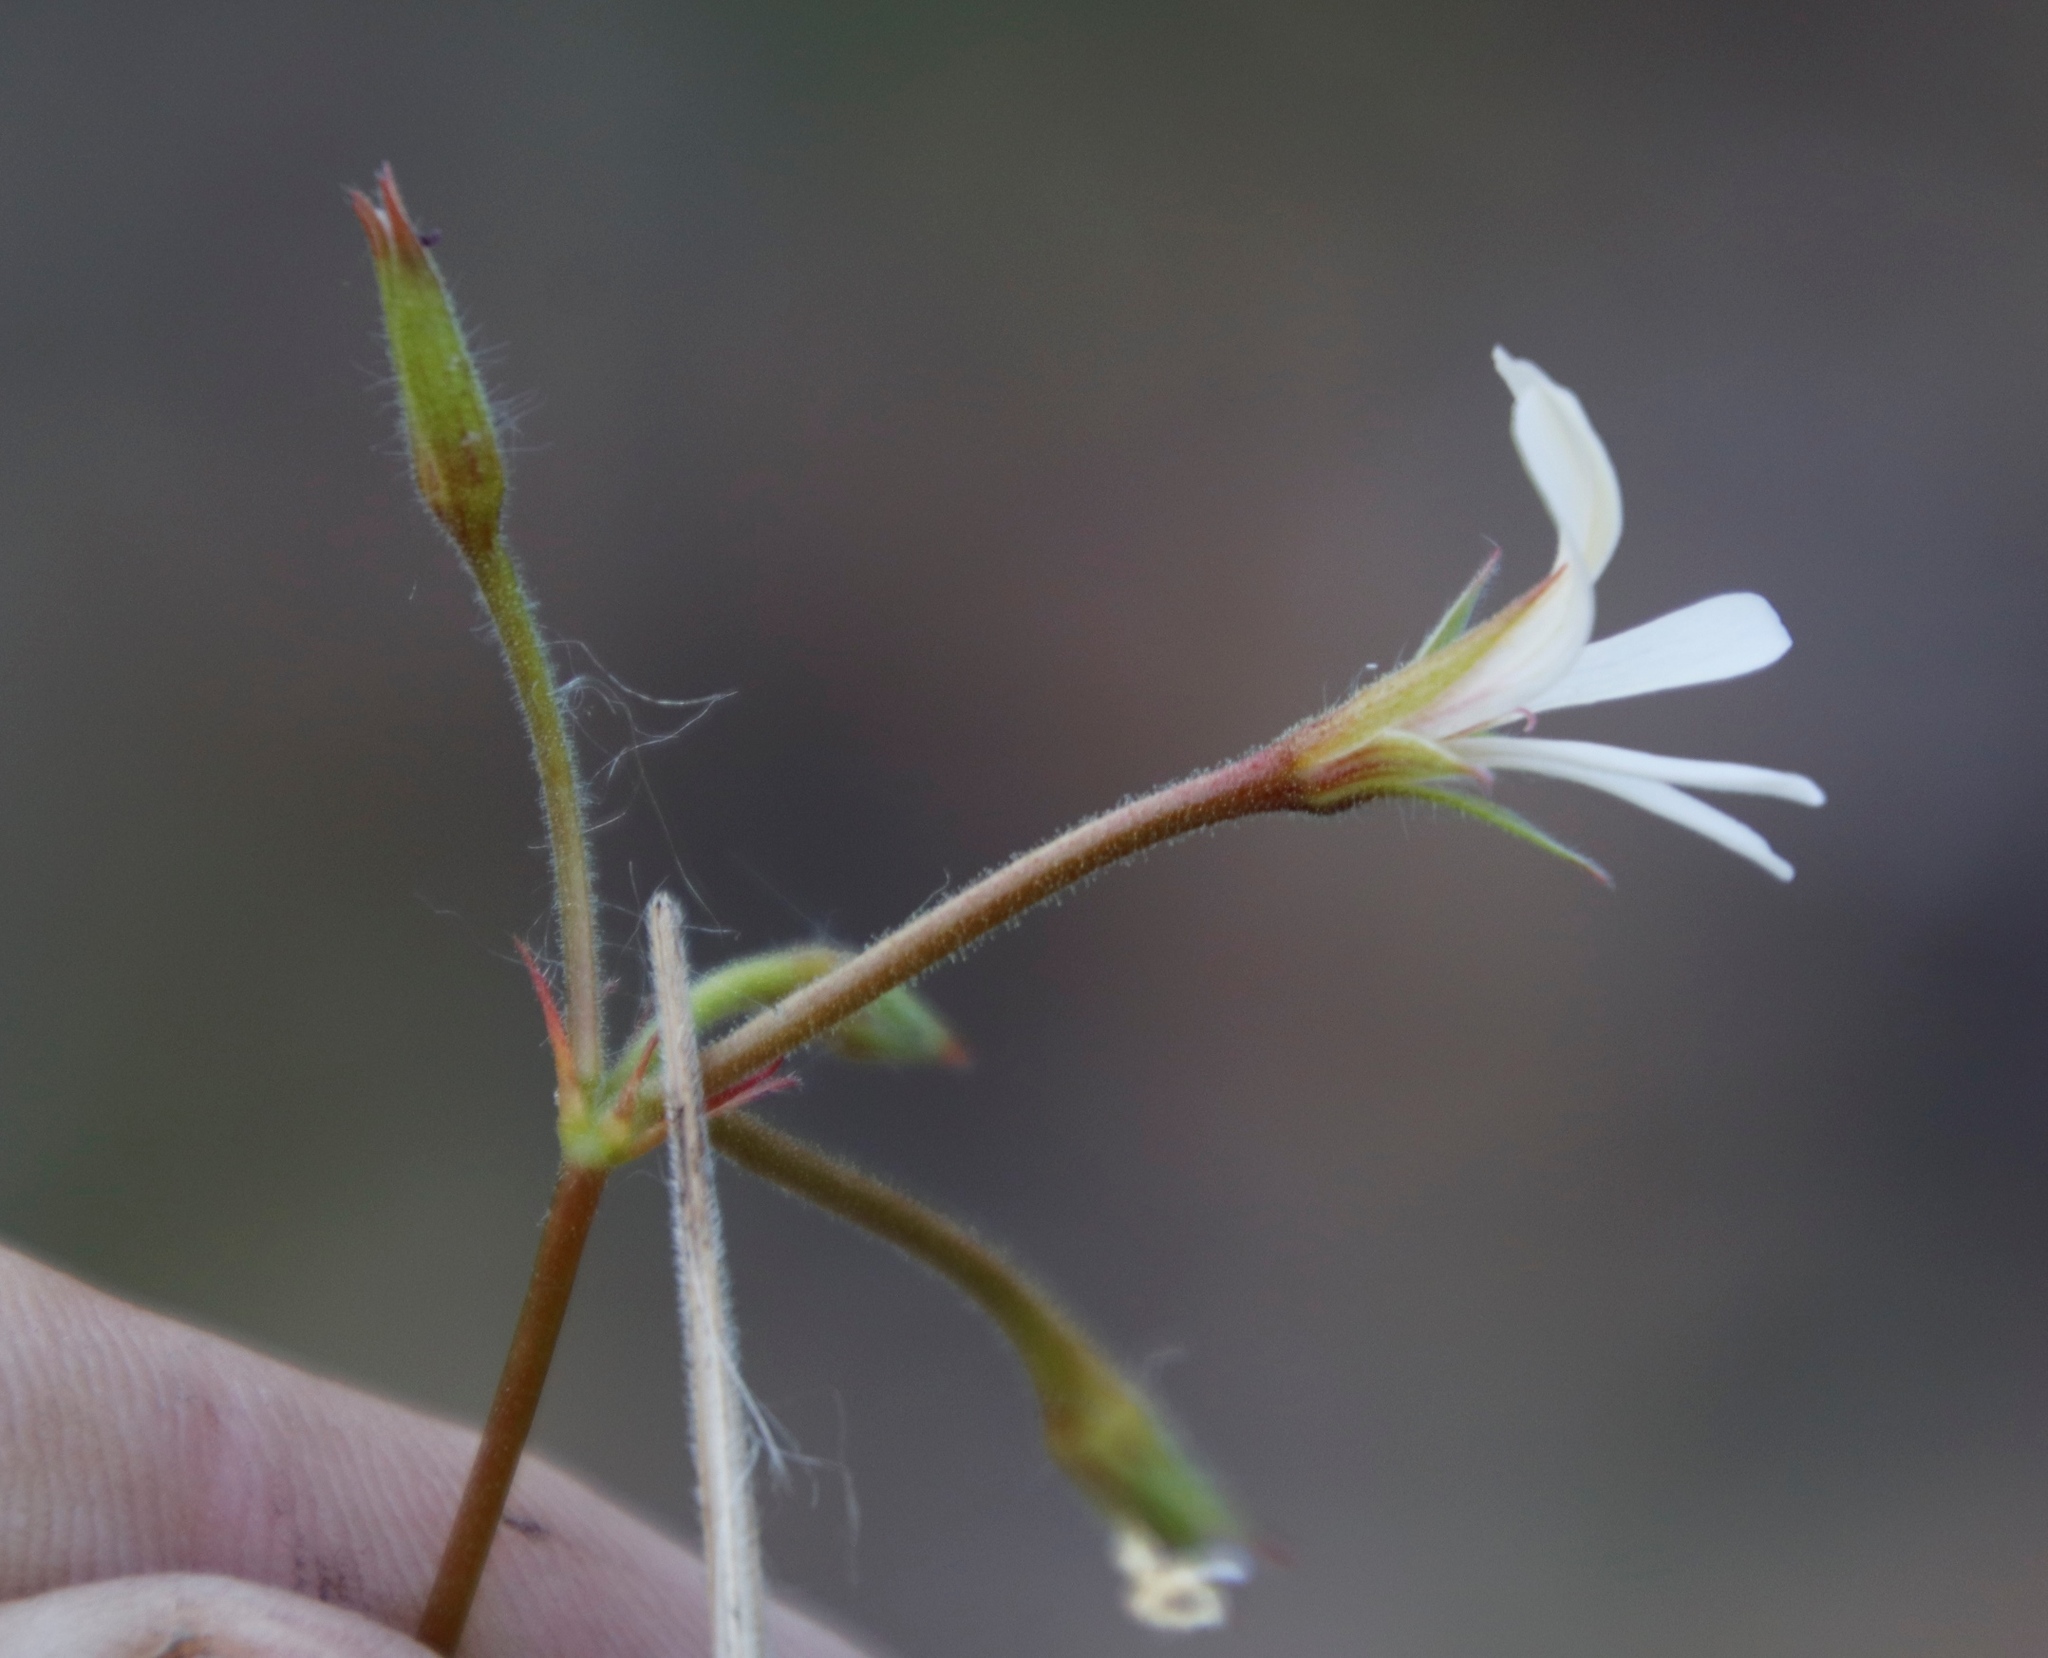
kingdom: Plantae
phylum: Tracheophyta
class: Magnoliopsida
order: Geraniales
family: Geraniaceae
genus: Pelargonium
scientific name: Pelargonium elongatum
